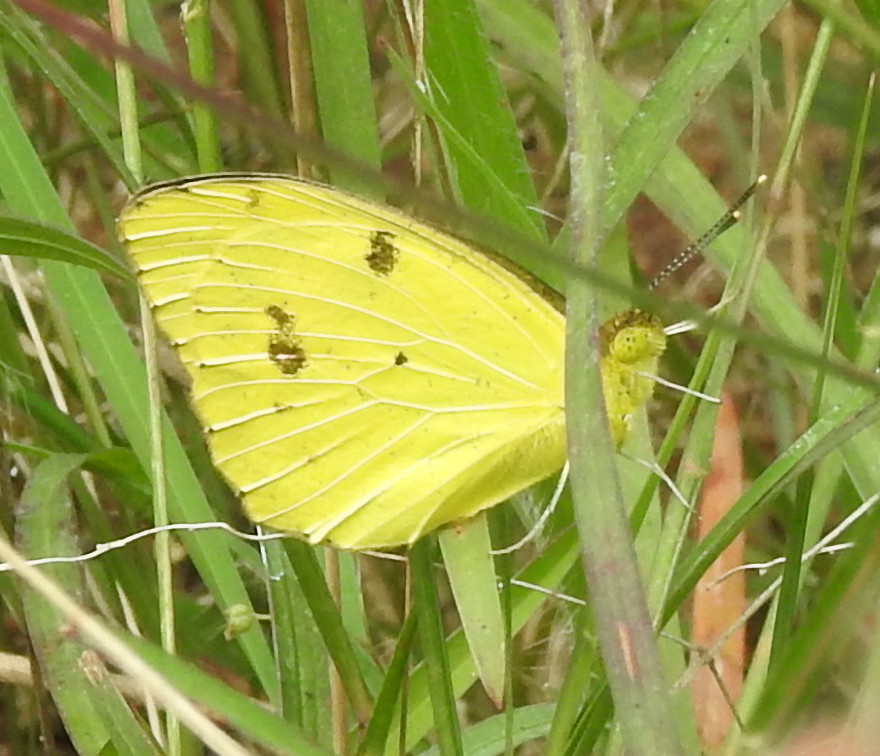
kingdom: Animalia
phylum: Arthropoda
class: Insecta
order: Lepidoptera
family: Pieridae
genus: Ixias
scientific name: Ixias marianne
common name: White orange tip
